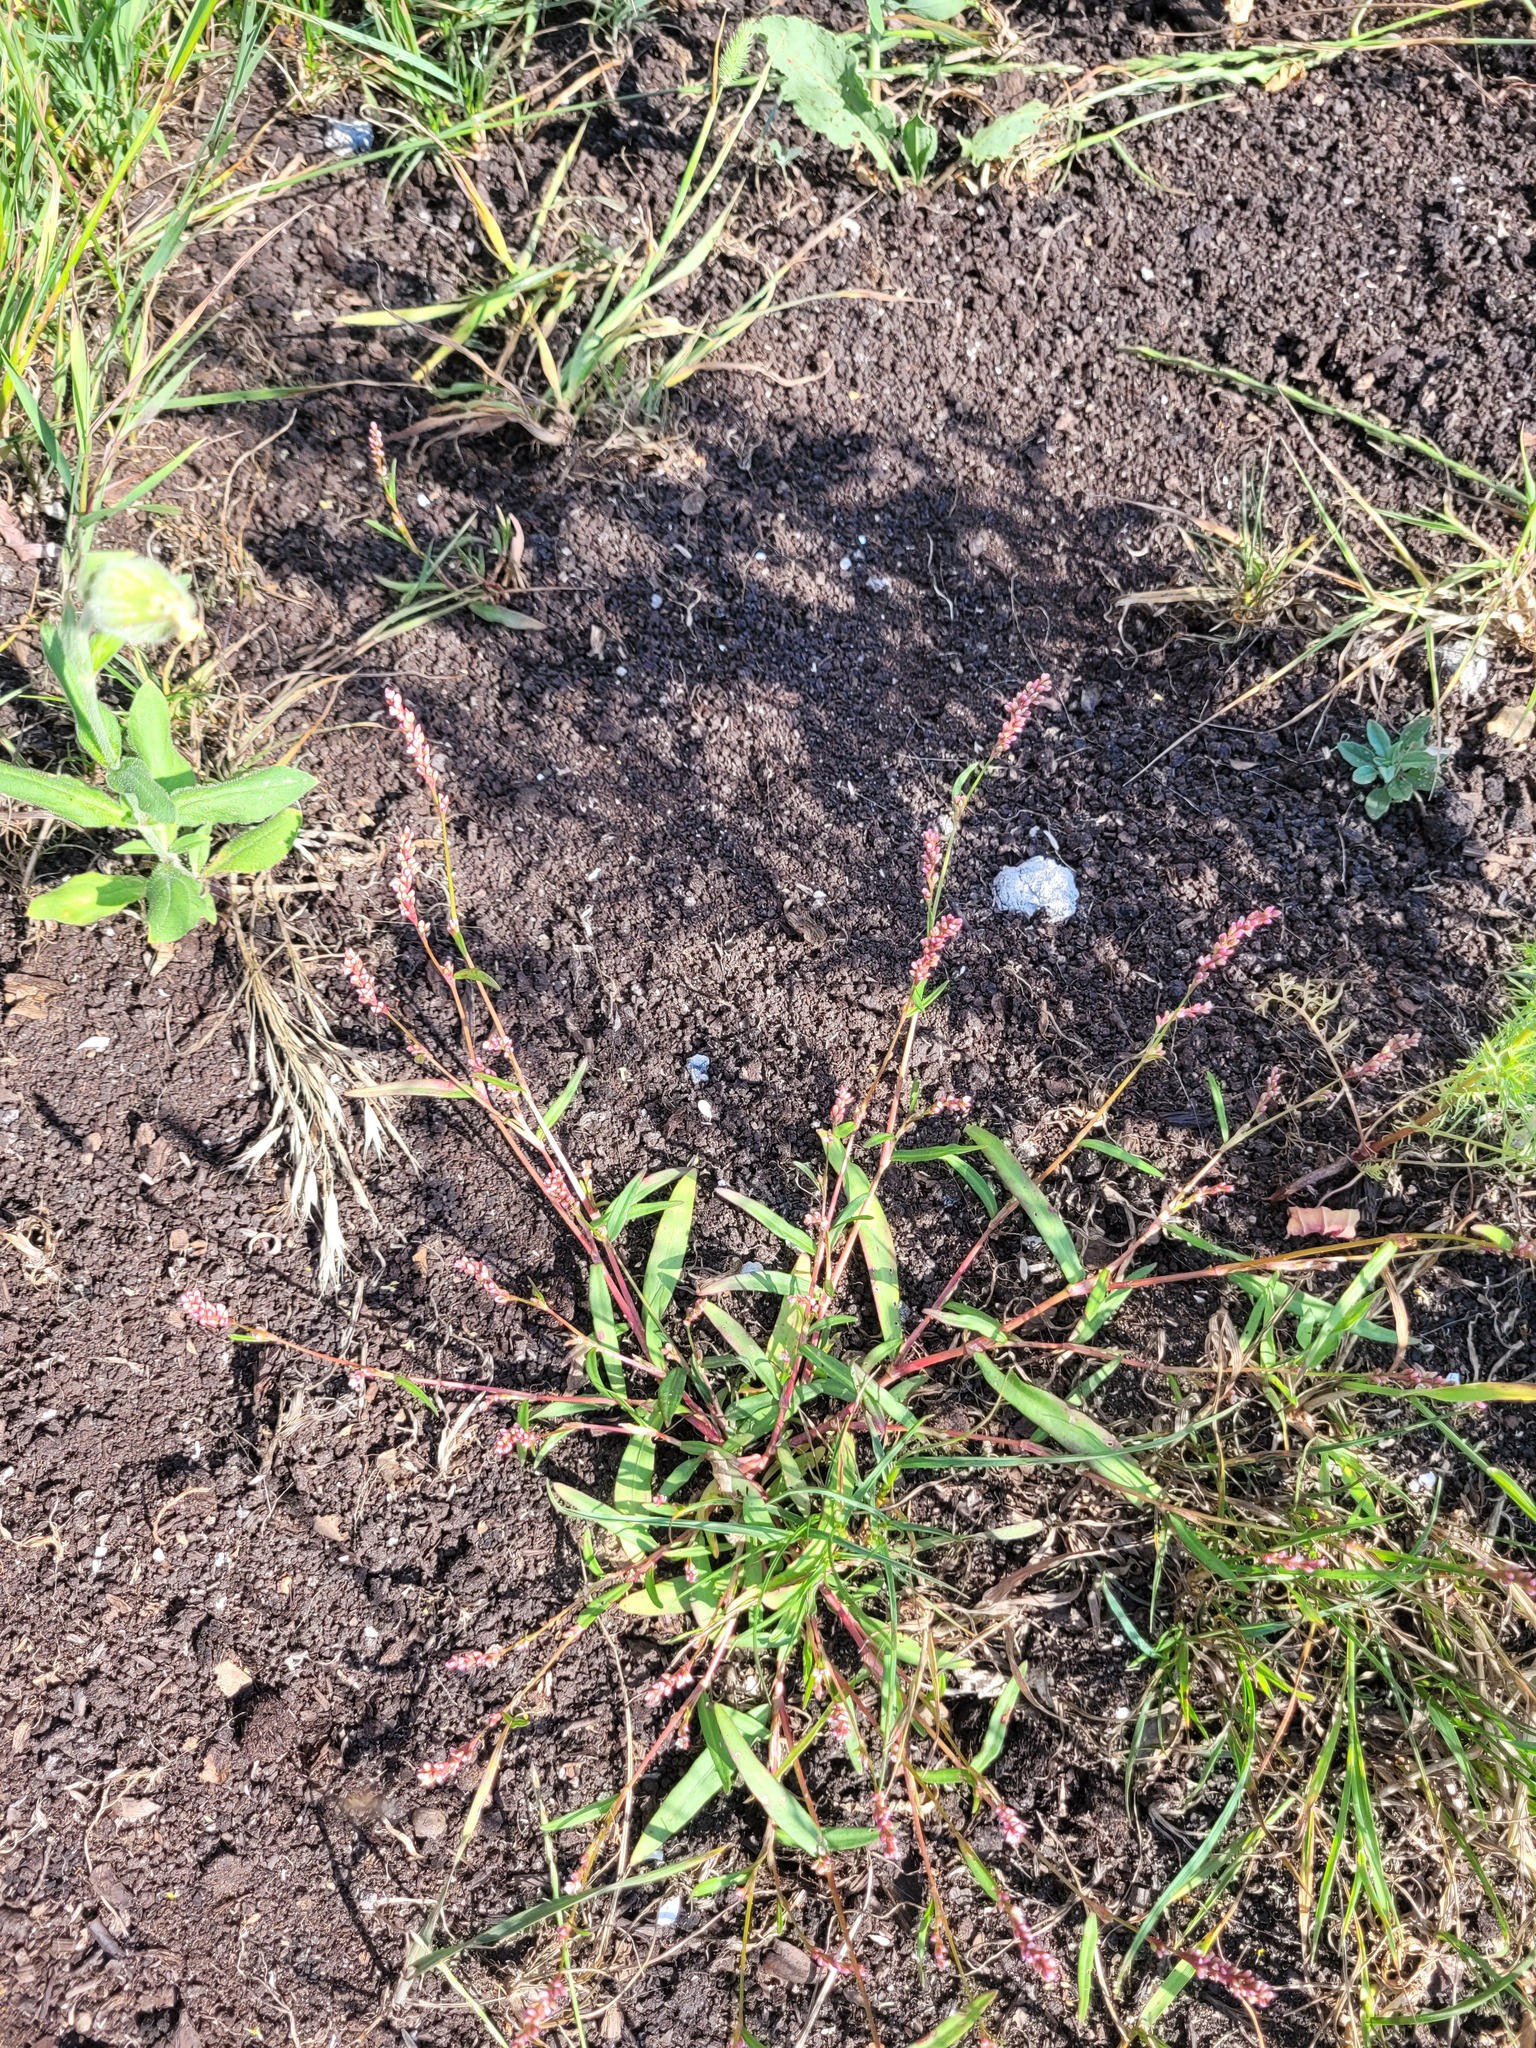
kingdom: Plantae
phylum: Tracheophyta
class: Magnoliopsida
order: Caryophyllales
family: Polygonaceae
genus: Persicaria
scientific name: Persicaria maculosa
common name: Redshank
